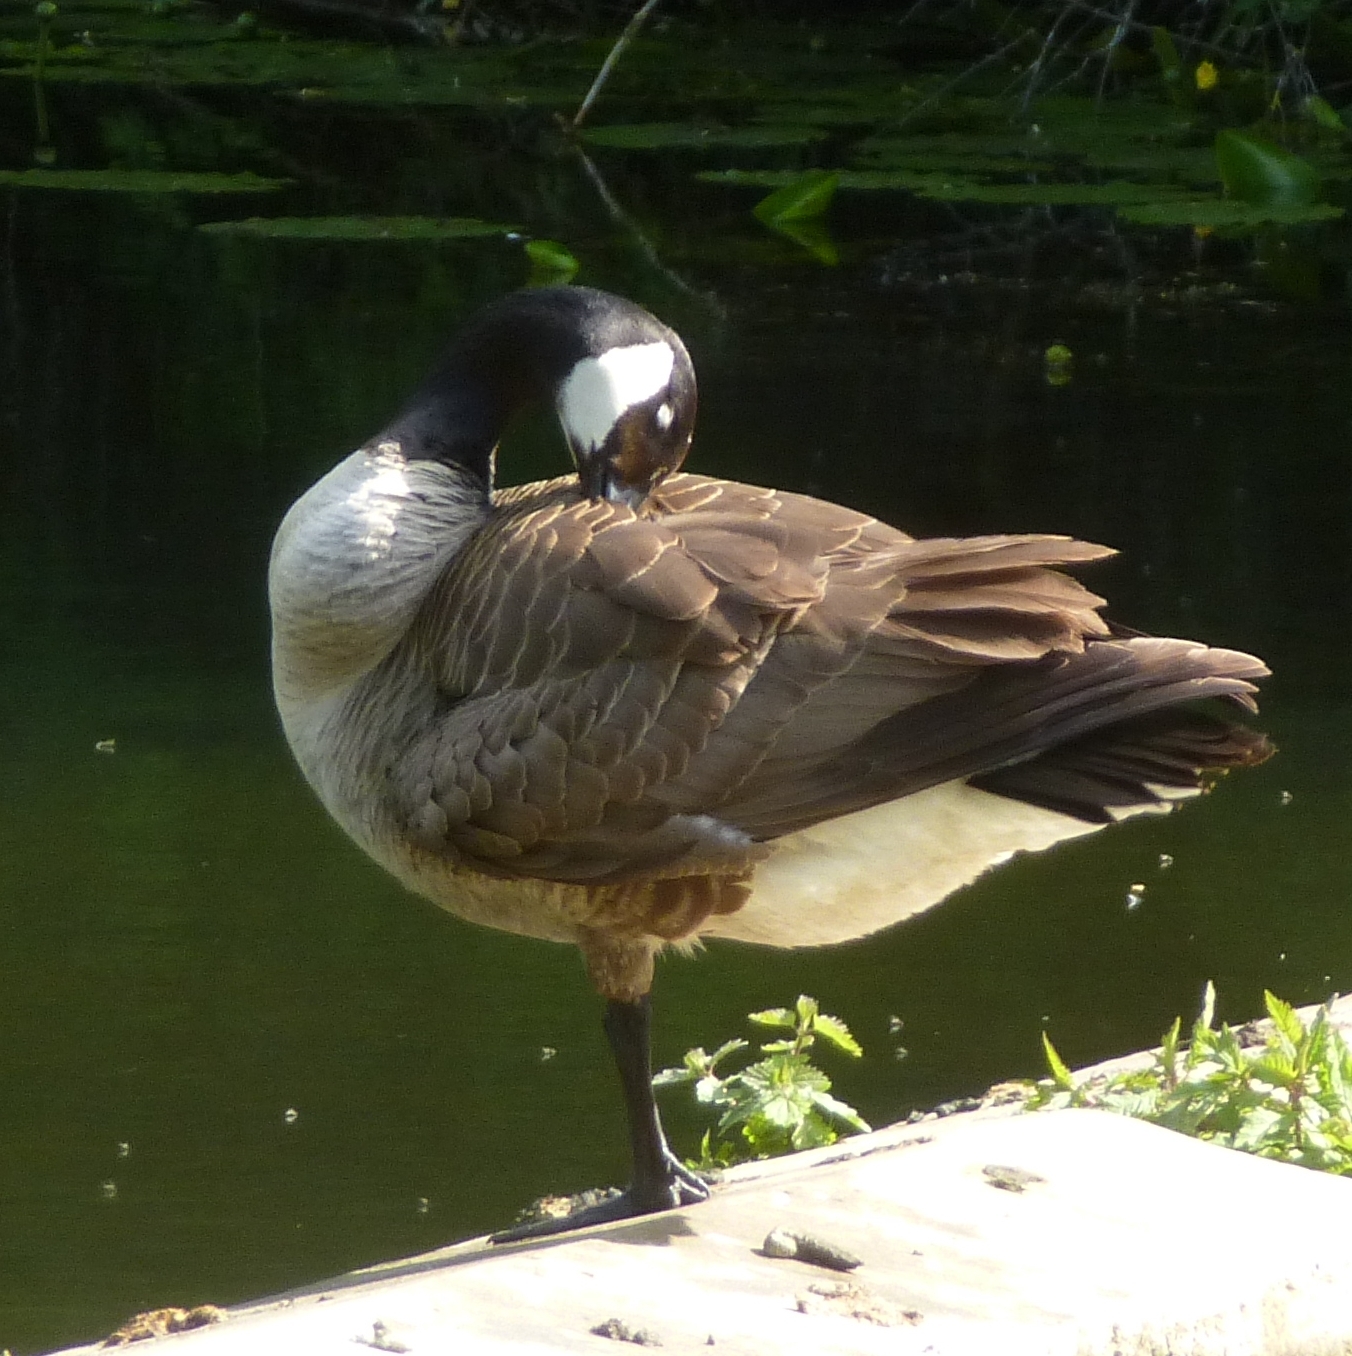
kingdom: Animalia
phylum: Chordata
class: Aves
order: Anseriformes
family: Anatidae
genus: Branta
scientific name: Branta canadensis
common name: Canada goose
